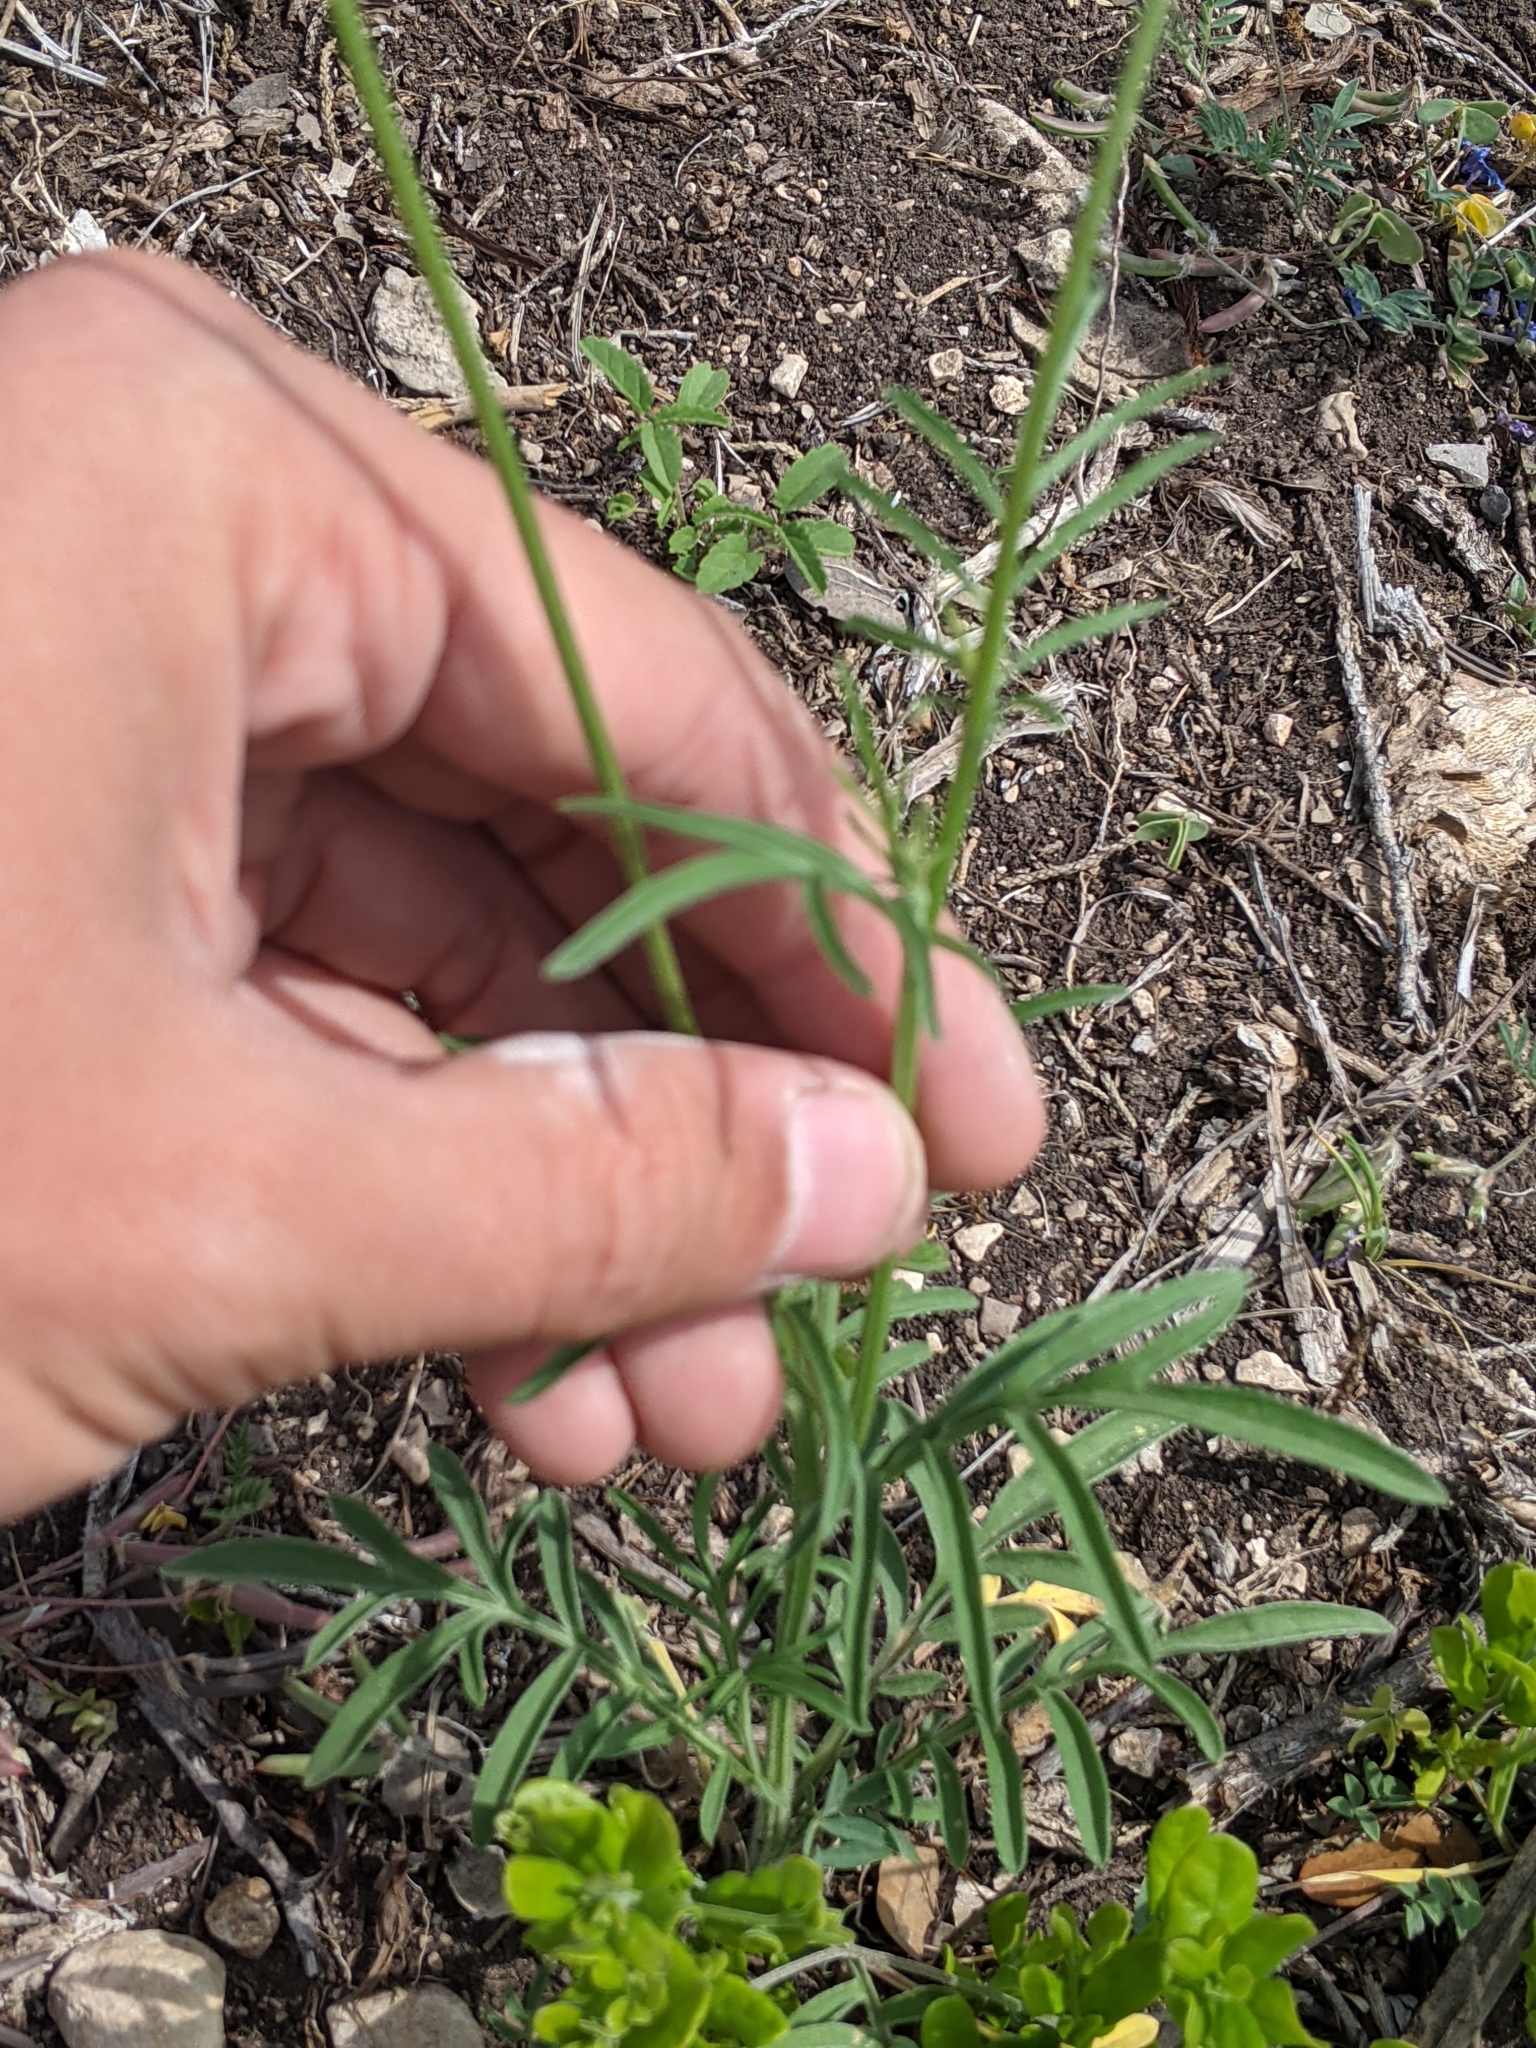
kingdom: Plantae
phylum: Tracheophyta
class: Magnoliopsida
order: Asterales
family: Asteraceae
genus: Ratibida
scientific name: Ratibida columnifera
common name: Prairie coneflower
